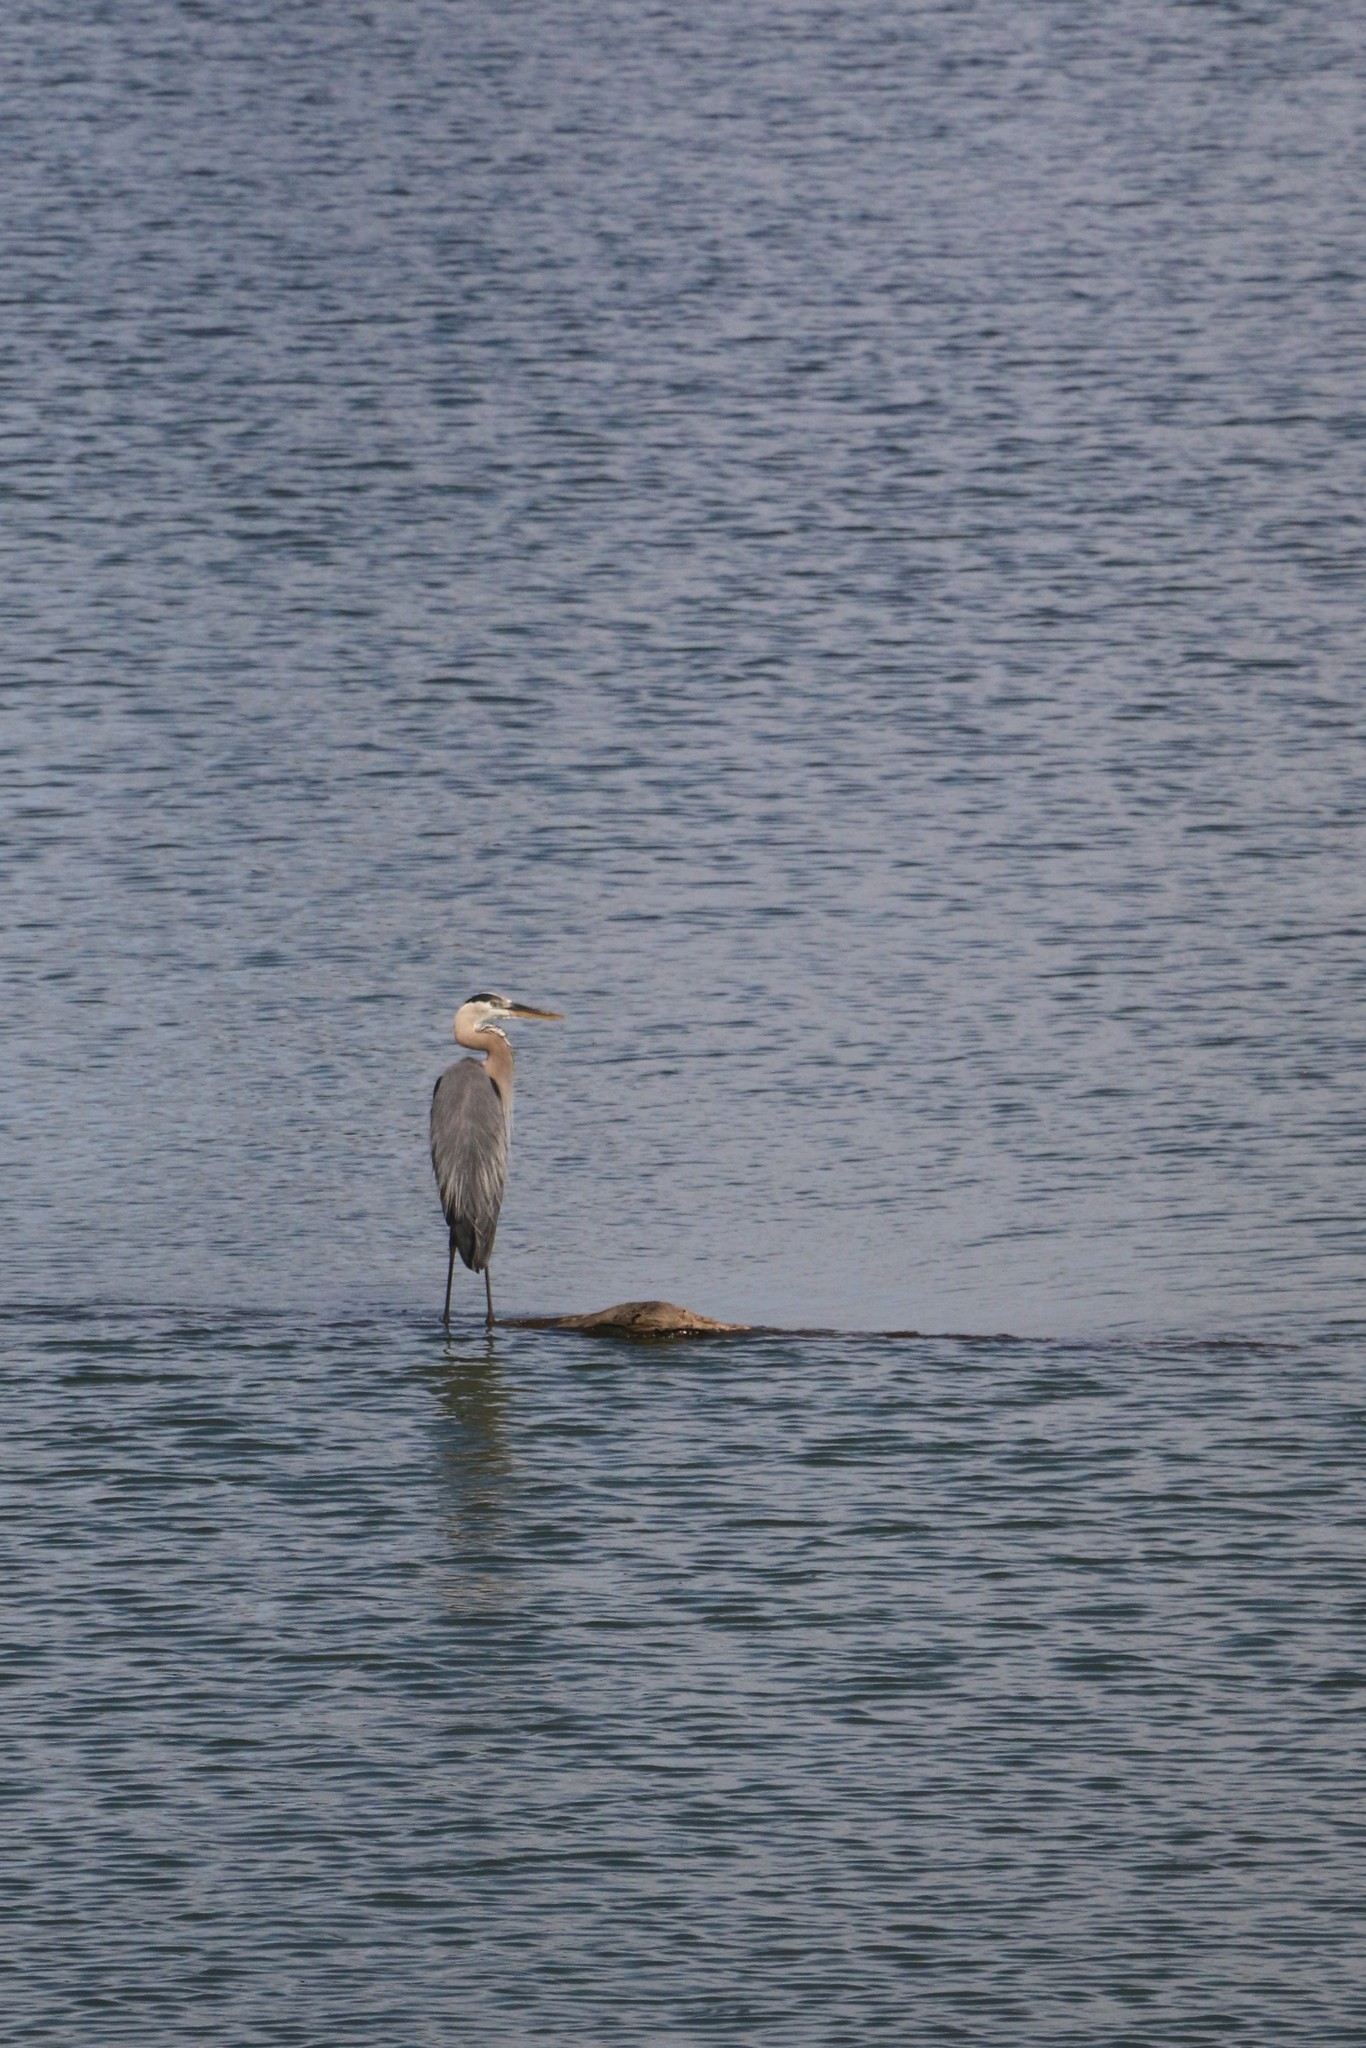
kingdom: Animalia
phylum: Chordata
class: Aves
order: Pelecaniformes
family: Ardeidae
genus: Ardea
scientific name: Ardea herodias
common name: Great blue heron
